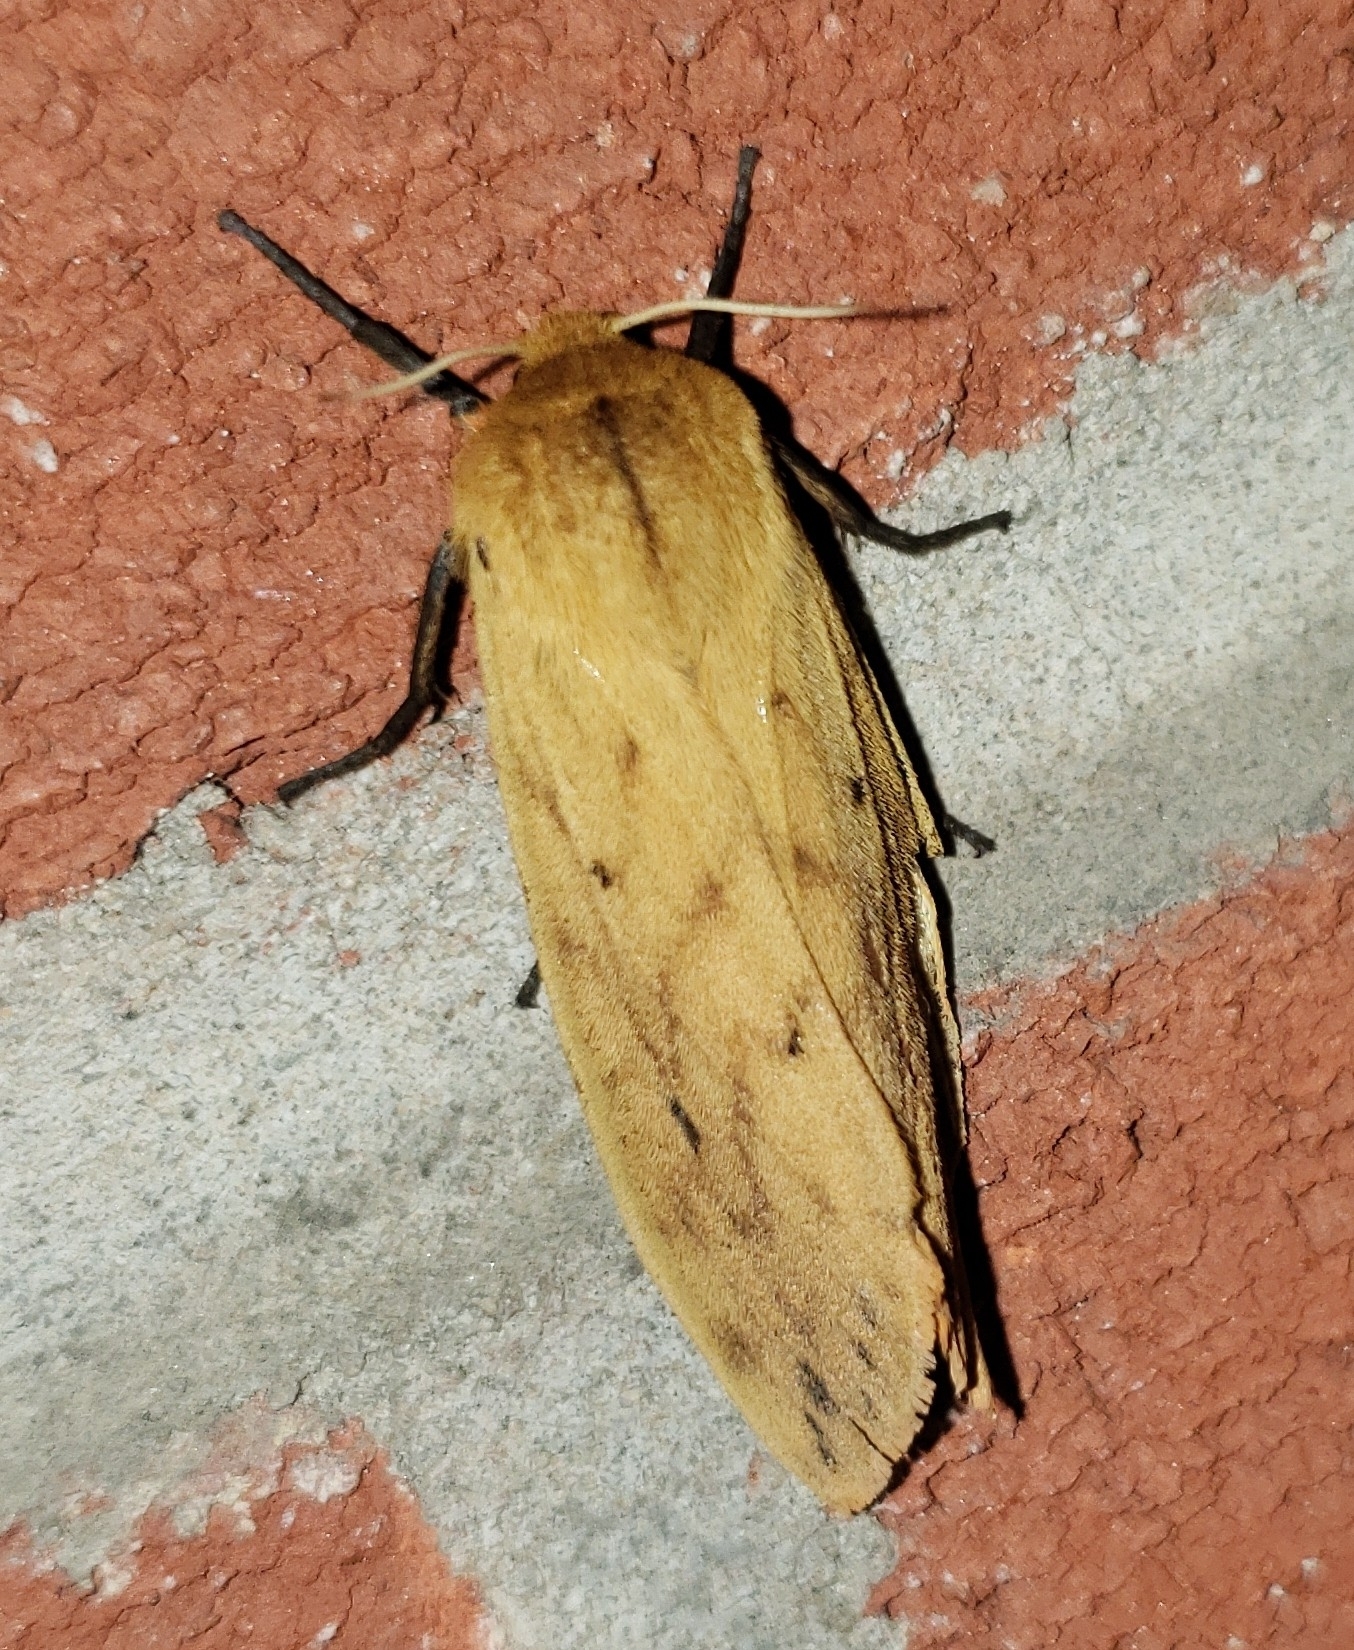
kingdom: Animalia
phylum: Arthropoda
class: Insecta
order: Lepidoptera
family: Erebidae
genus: Pyrrharctia
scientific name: Pyrrharctia isabella
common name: Isabella tiger moth
